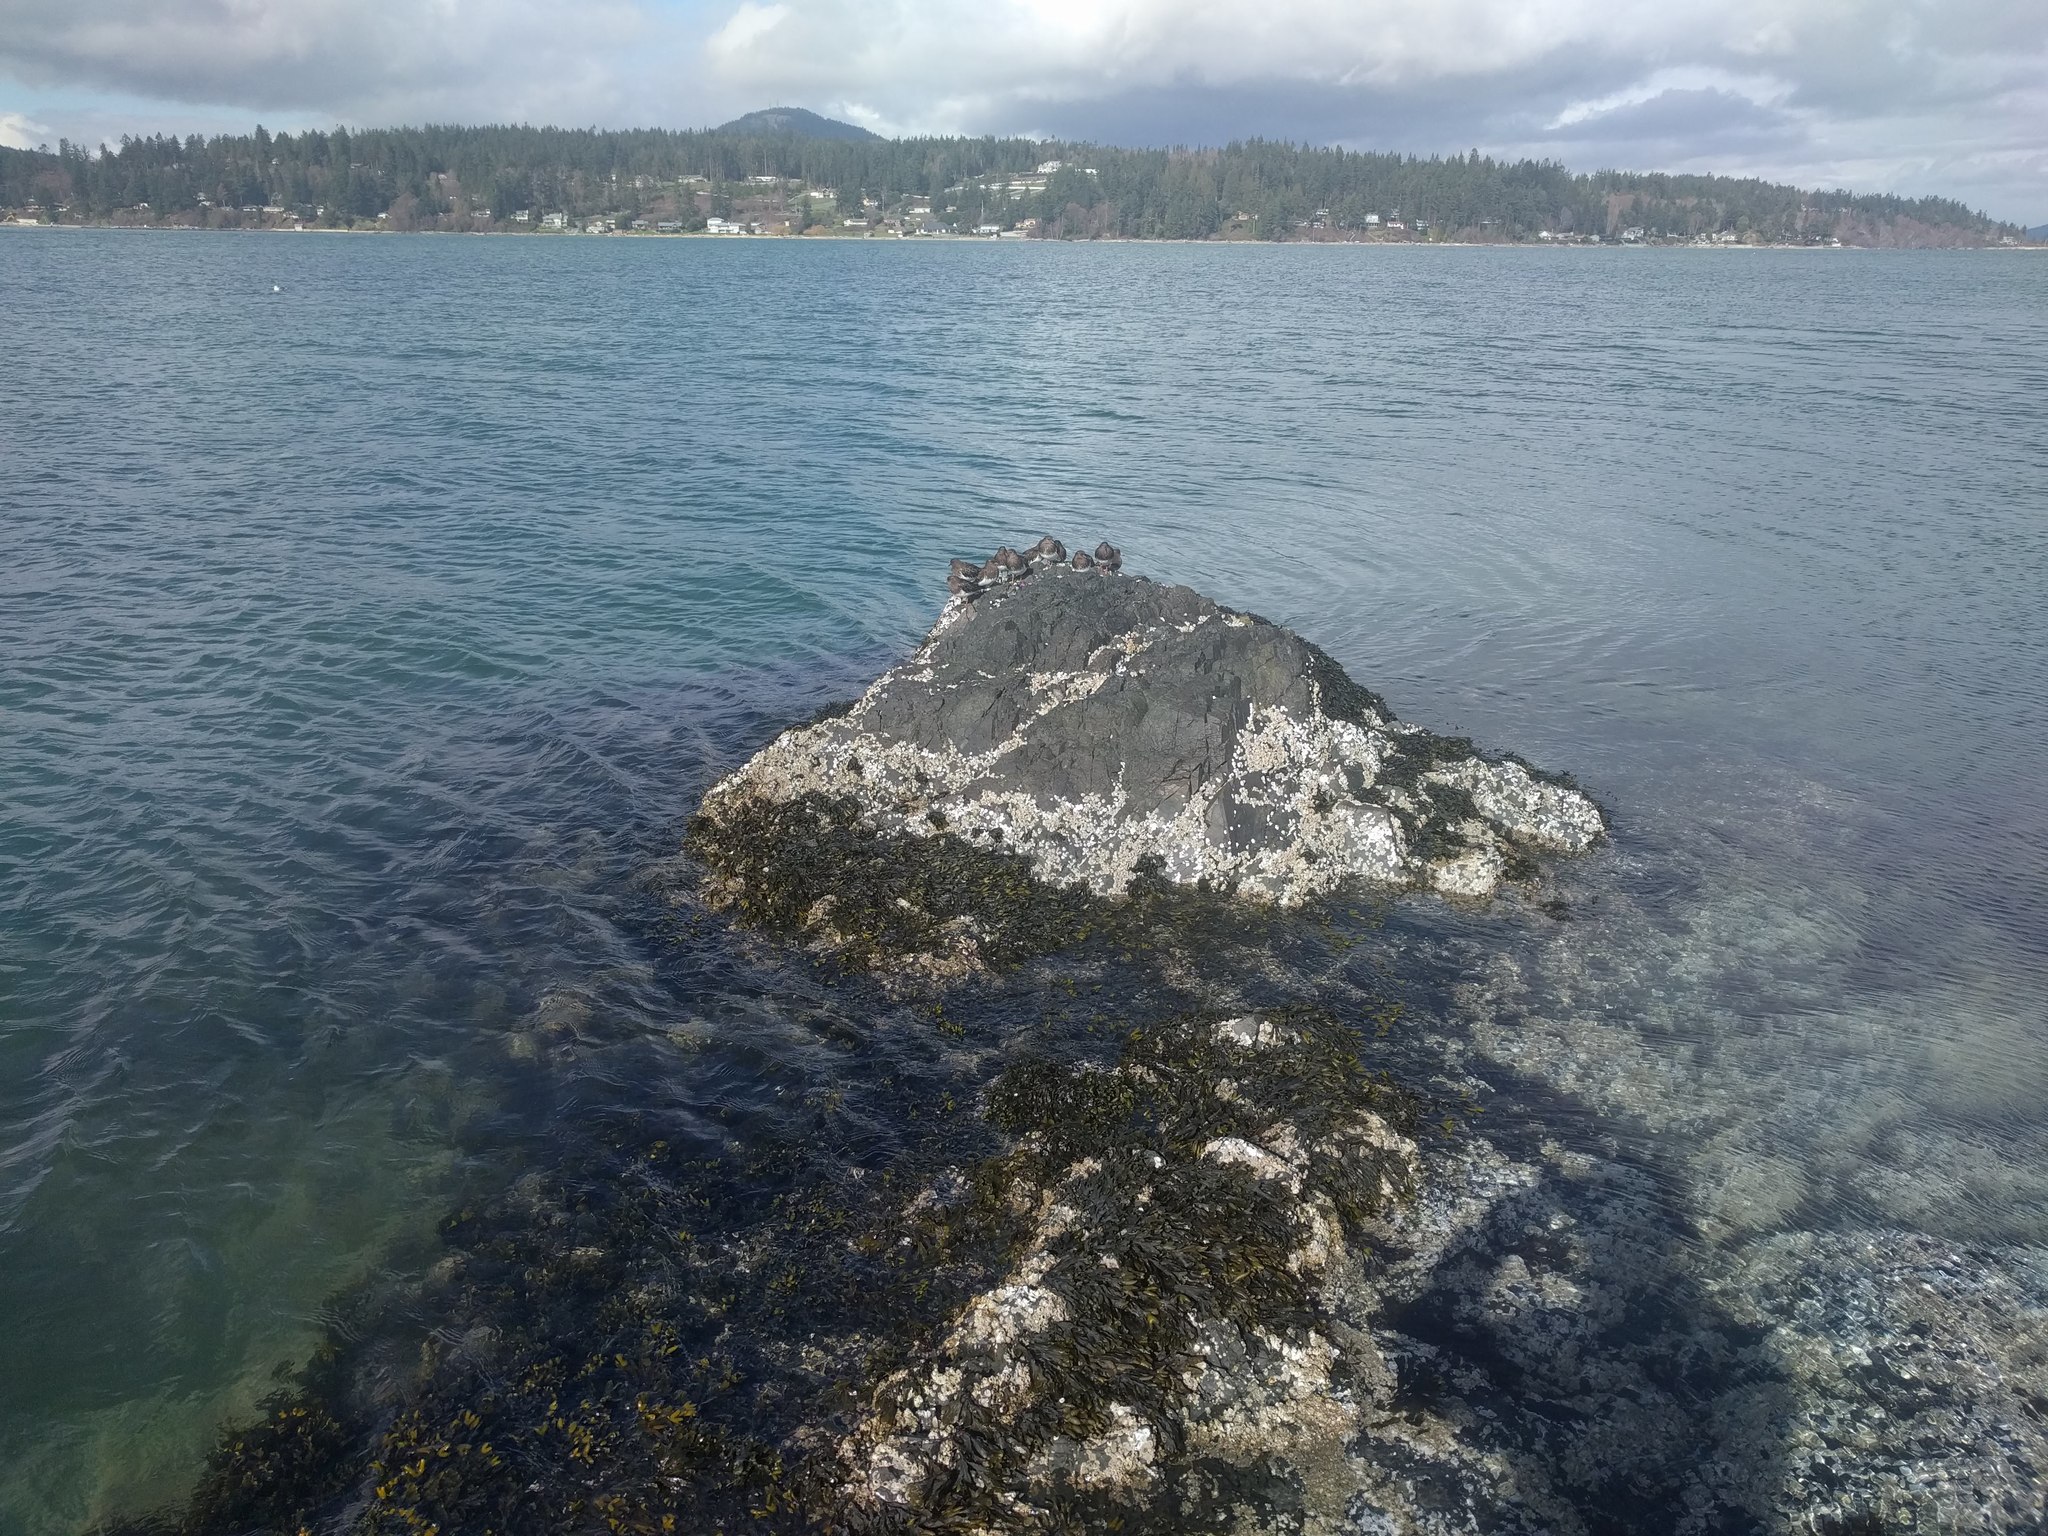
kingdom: Animalia
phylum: Chordata
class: Aves
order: Charadriiformes
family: Scolopacidae
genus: Arenaria
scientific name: Arenaria melanocephala
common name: Black turnstone
